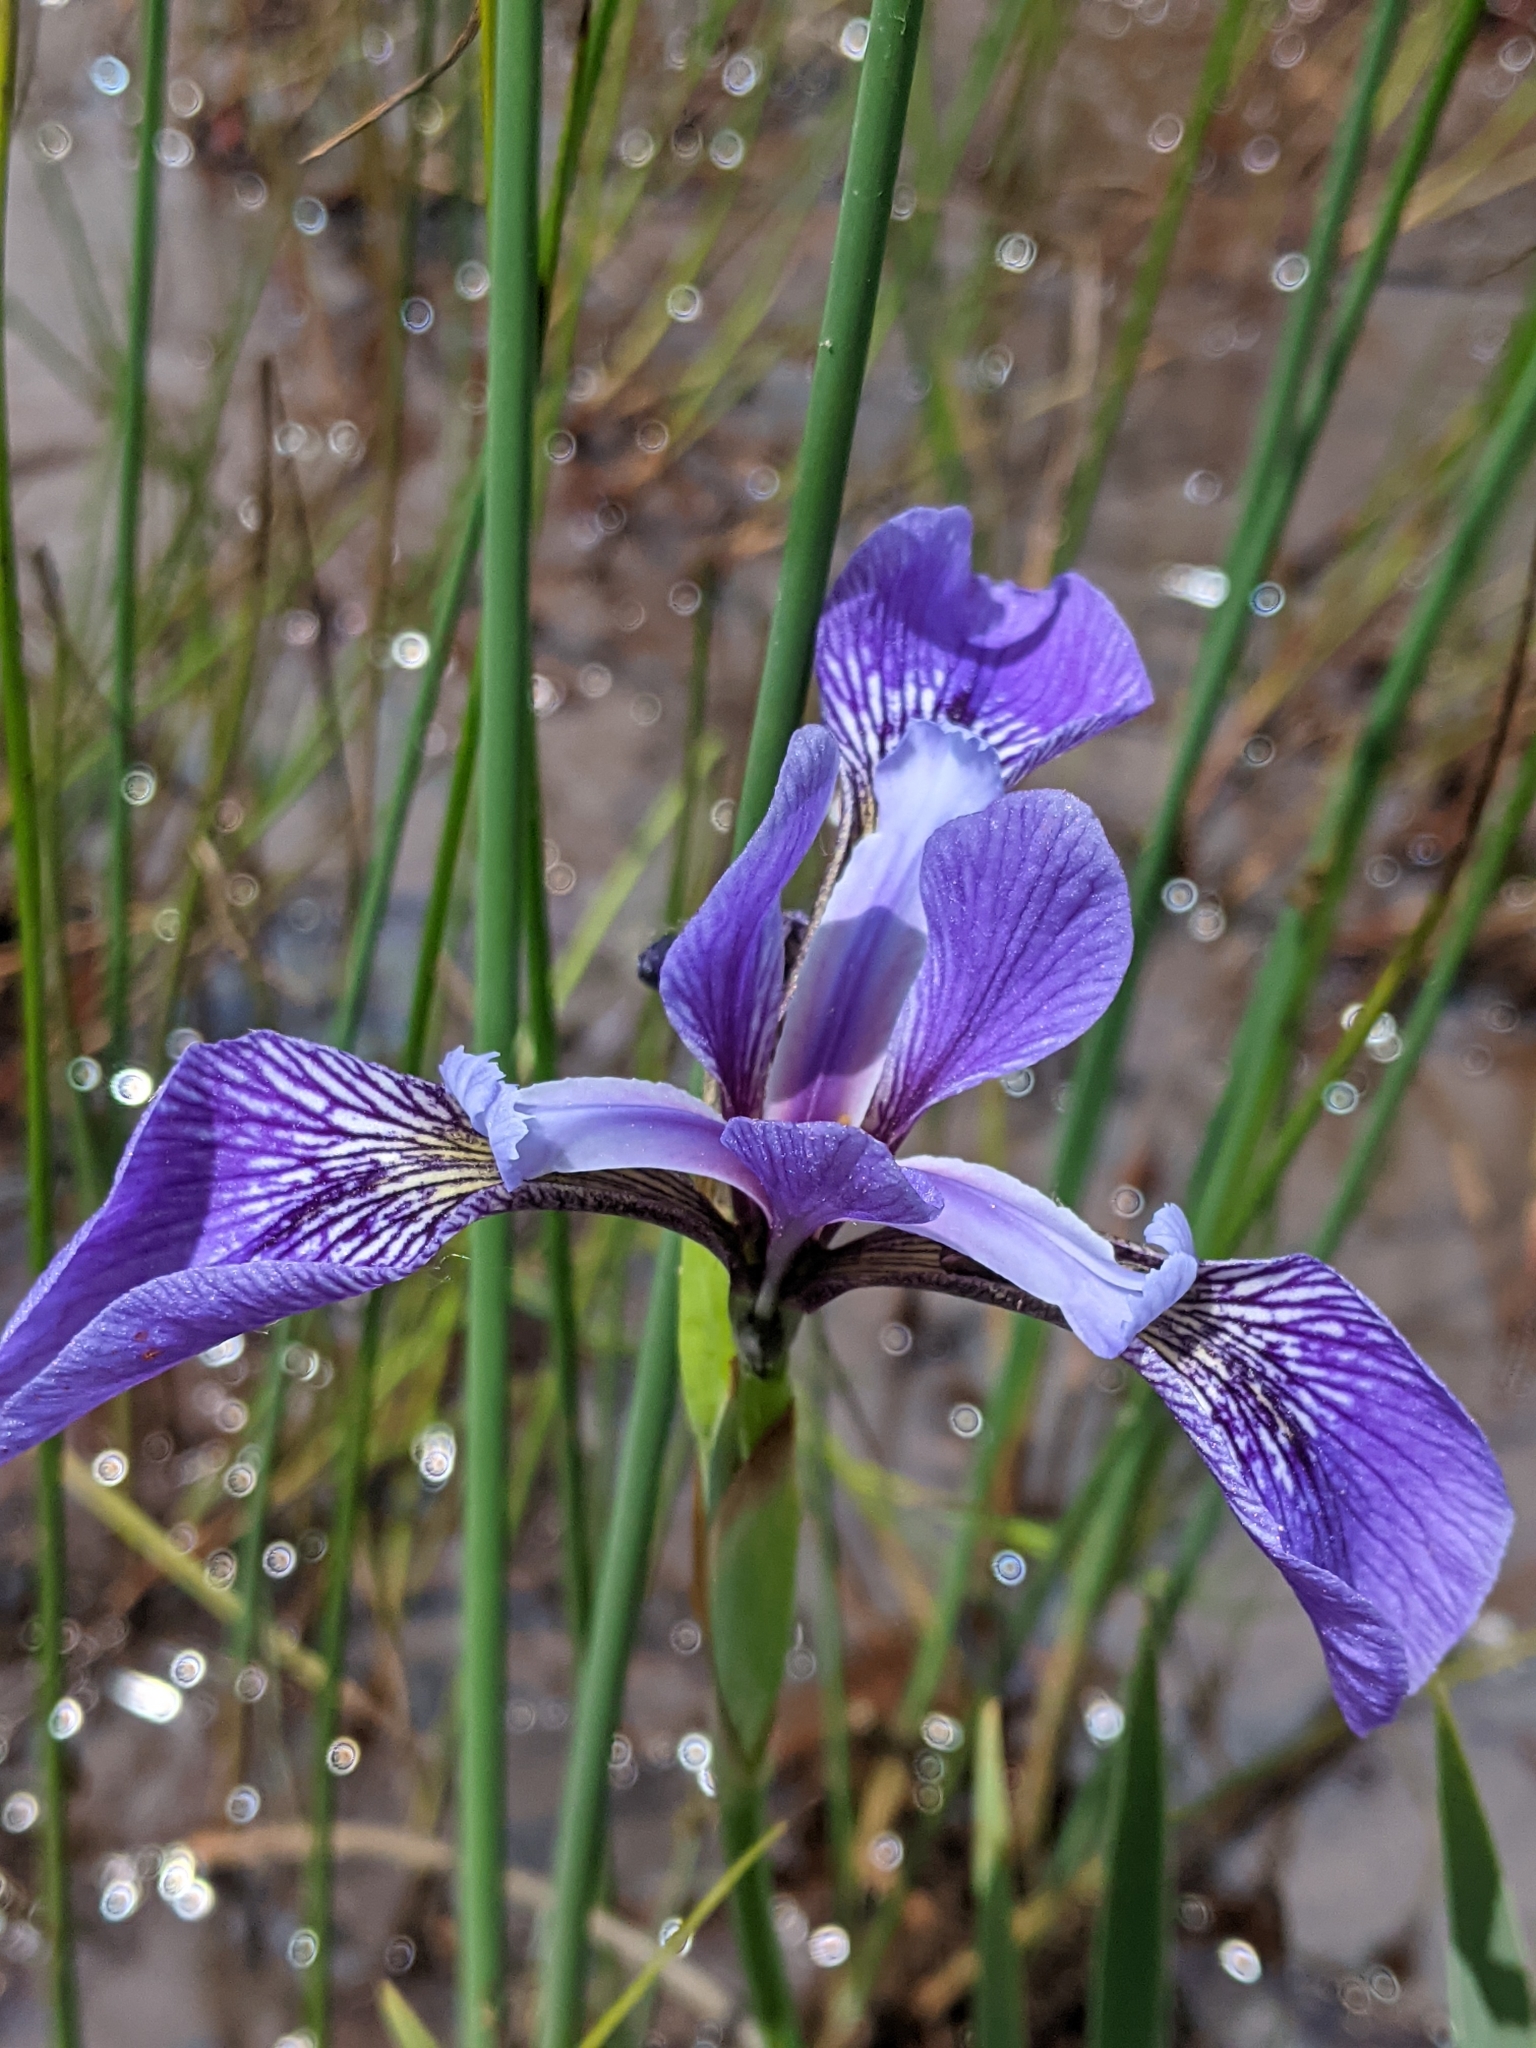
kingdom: Plantae
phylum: Tracheophyta
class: Liliopsida
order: Asparagales
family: Iridaceae
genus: Iris
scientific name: Iris versicolor
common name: Purple iris
